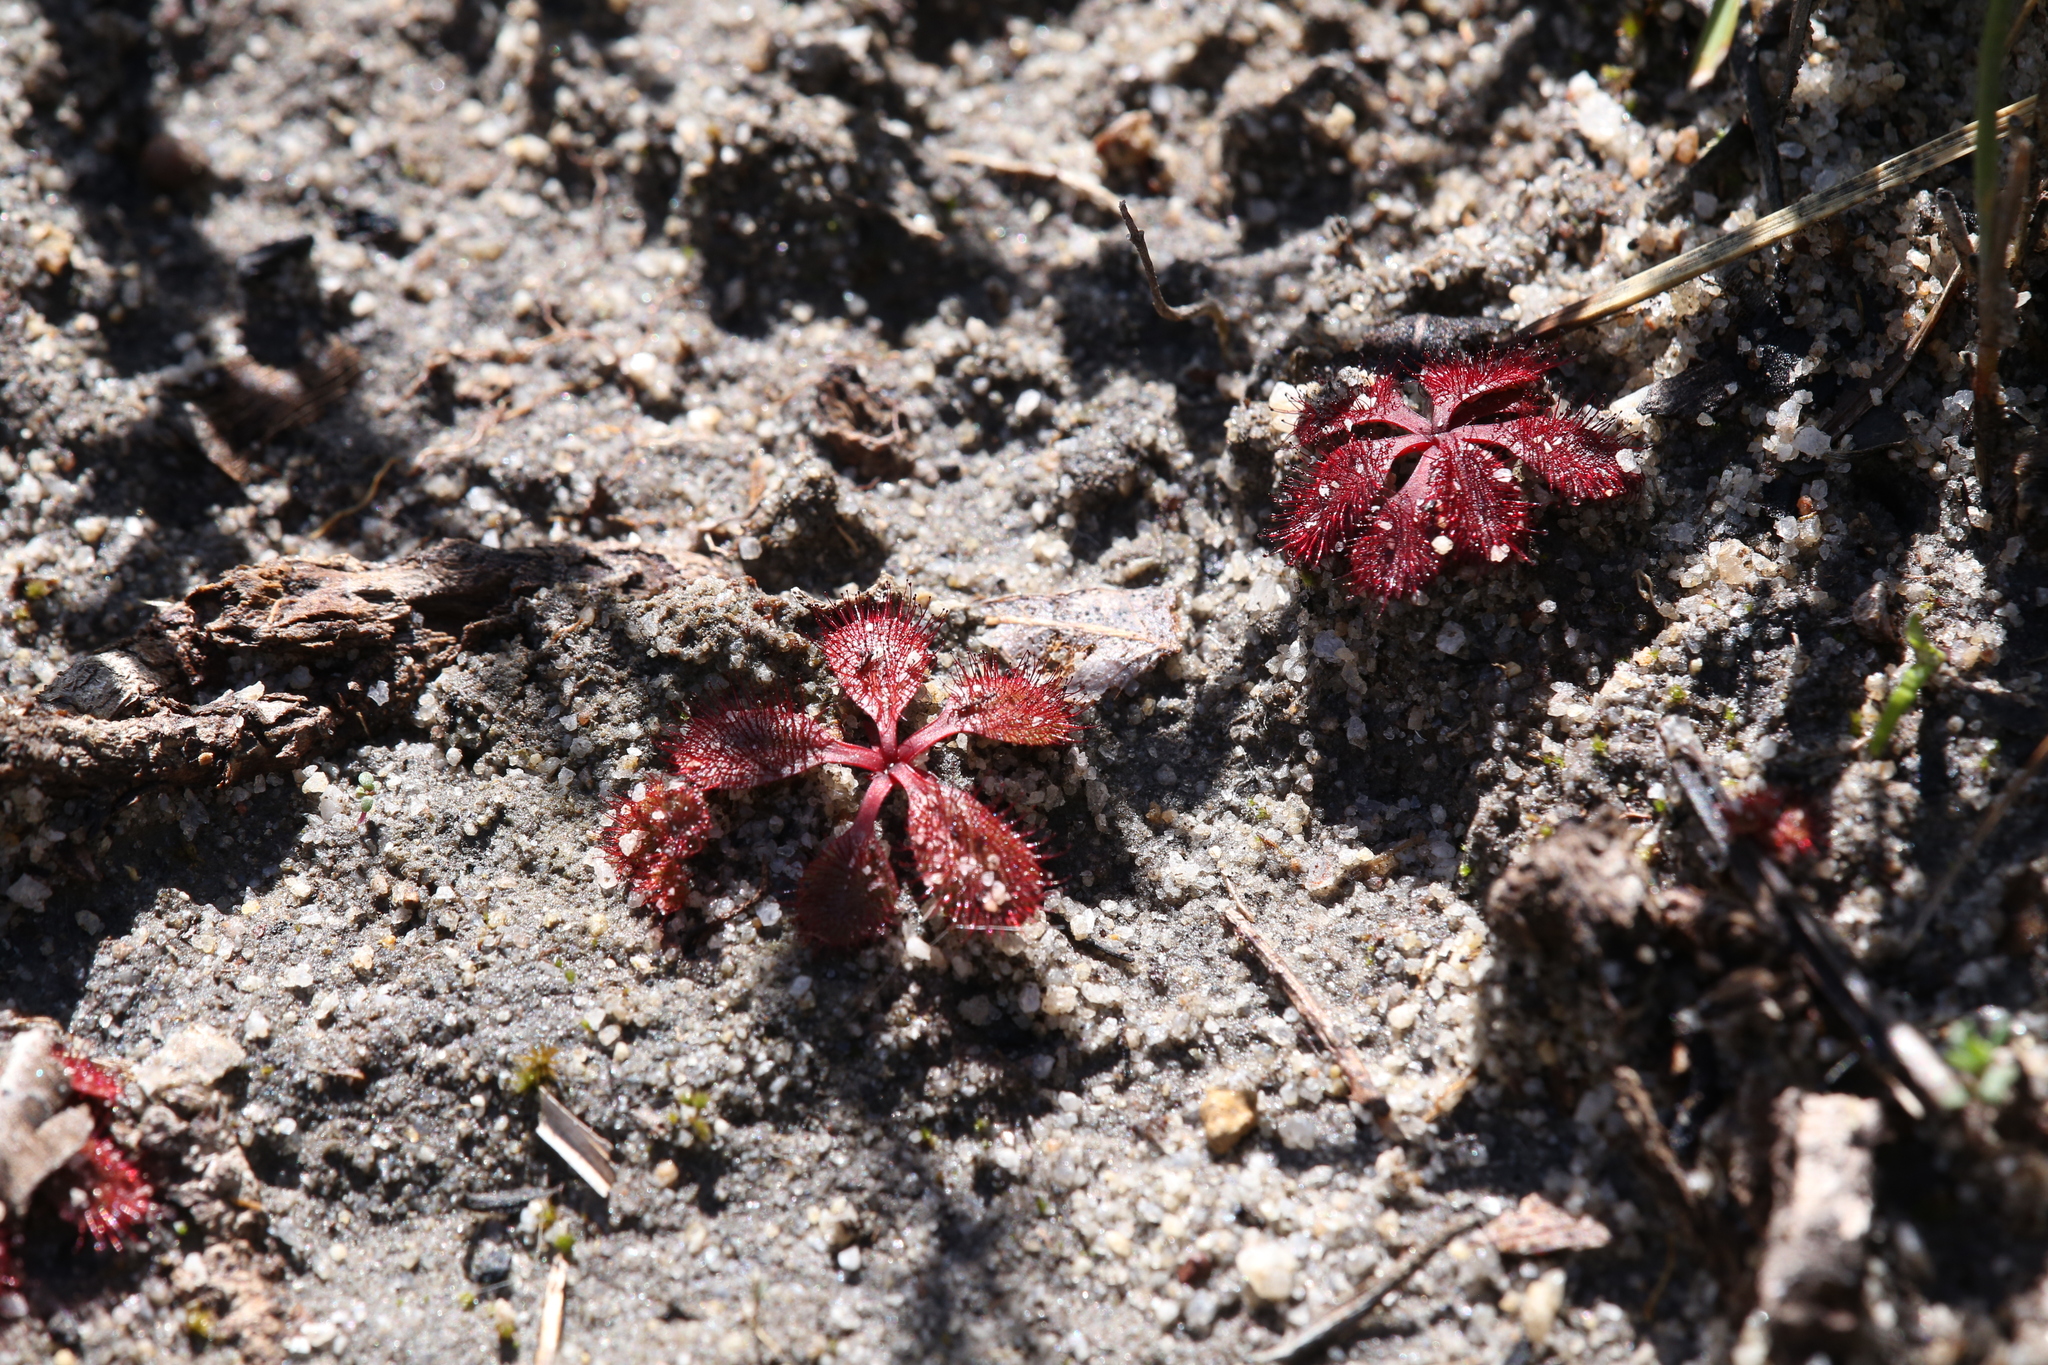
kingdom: Plantae
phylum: Tracheophyta
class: Magnoliopsida
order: Caryophyllales
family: Droseraceae
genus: Drosera
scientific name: Drosera rosulata
